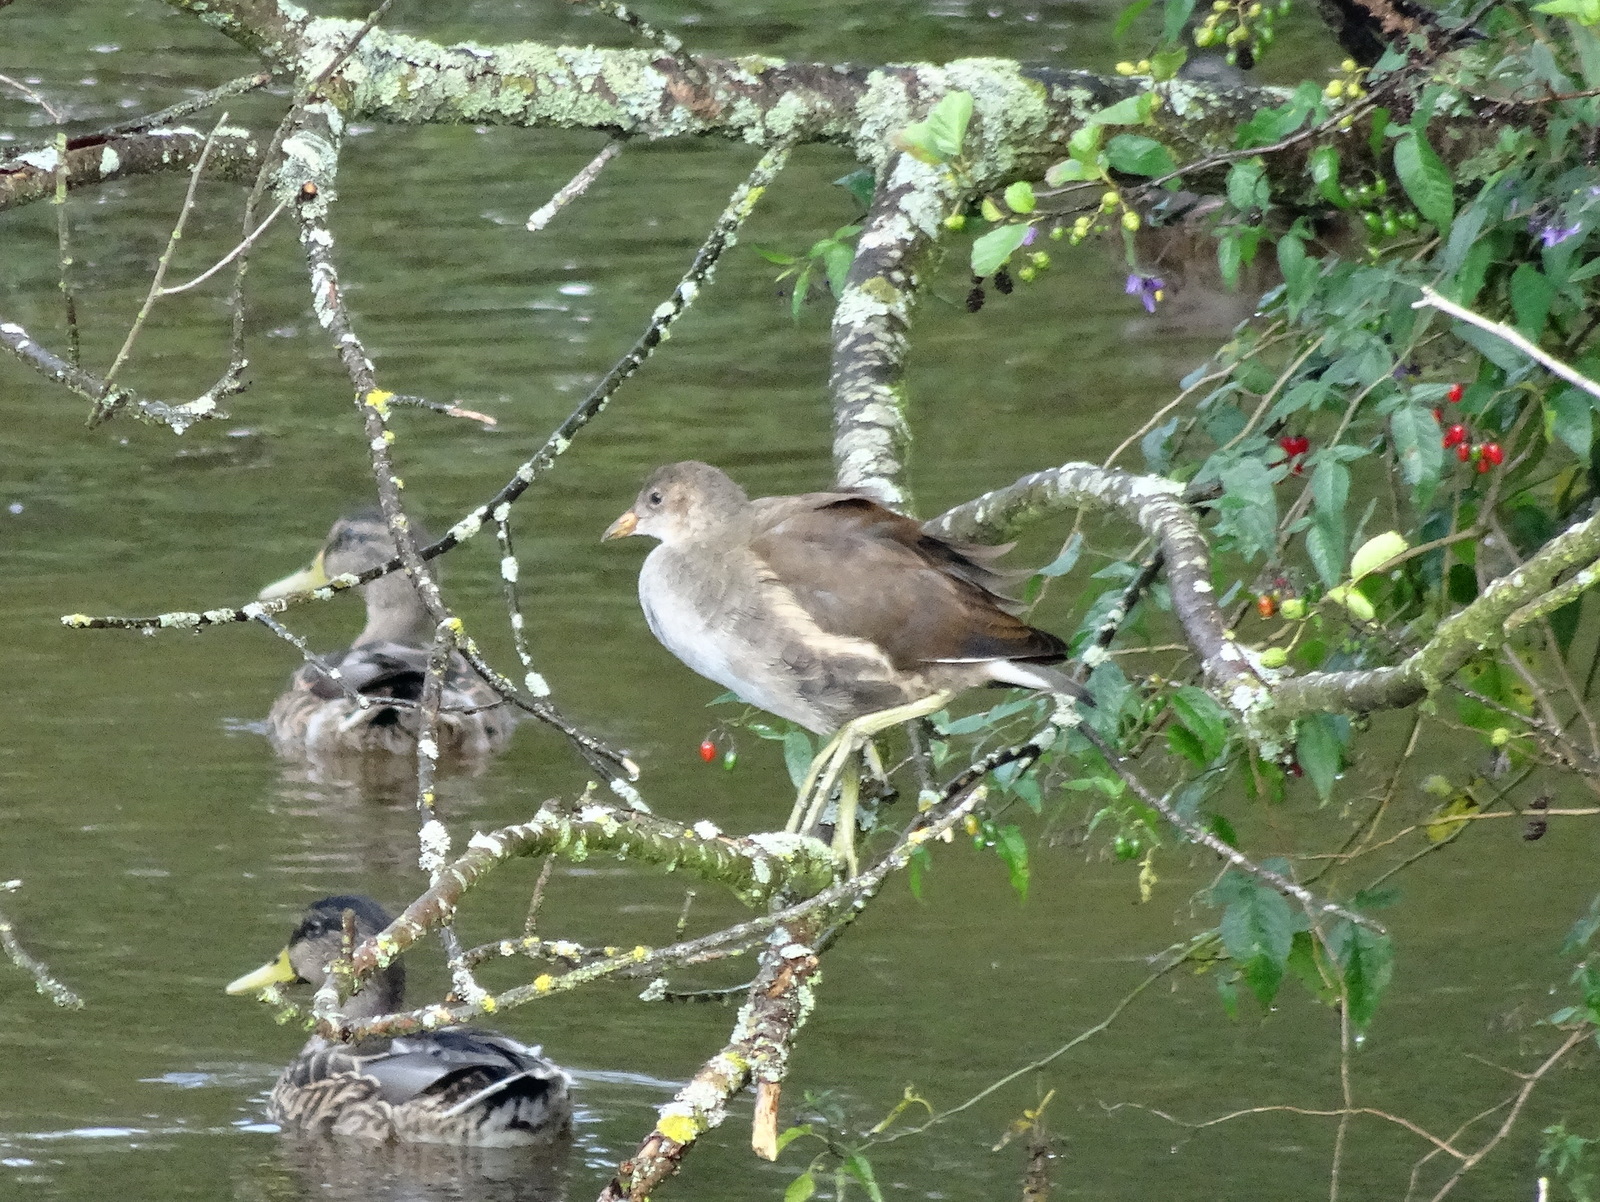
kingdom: Animalia
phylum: Chordata
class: Aves
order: Gruiformes
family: Rallidae
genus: Gallinula
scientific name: Gallinula chloropus
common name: Common moorhen
